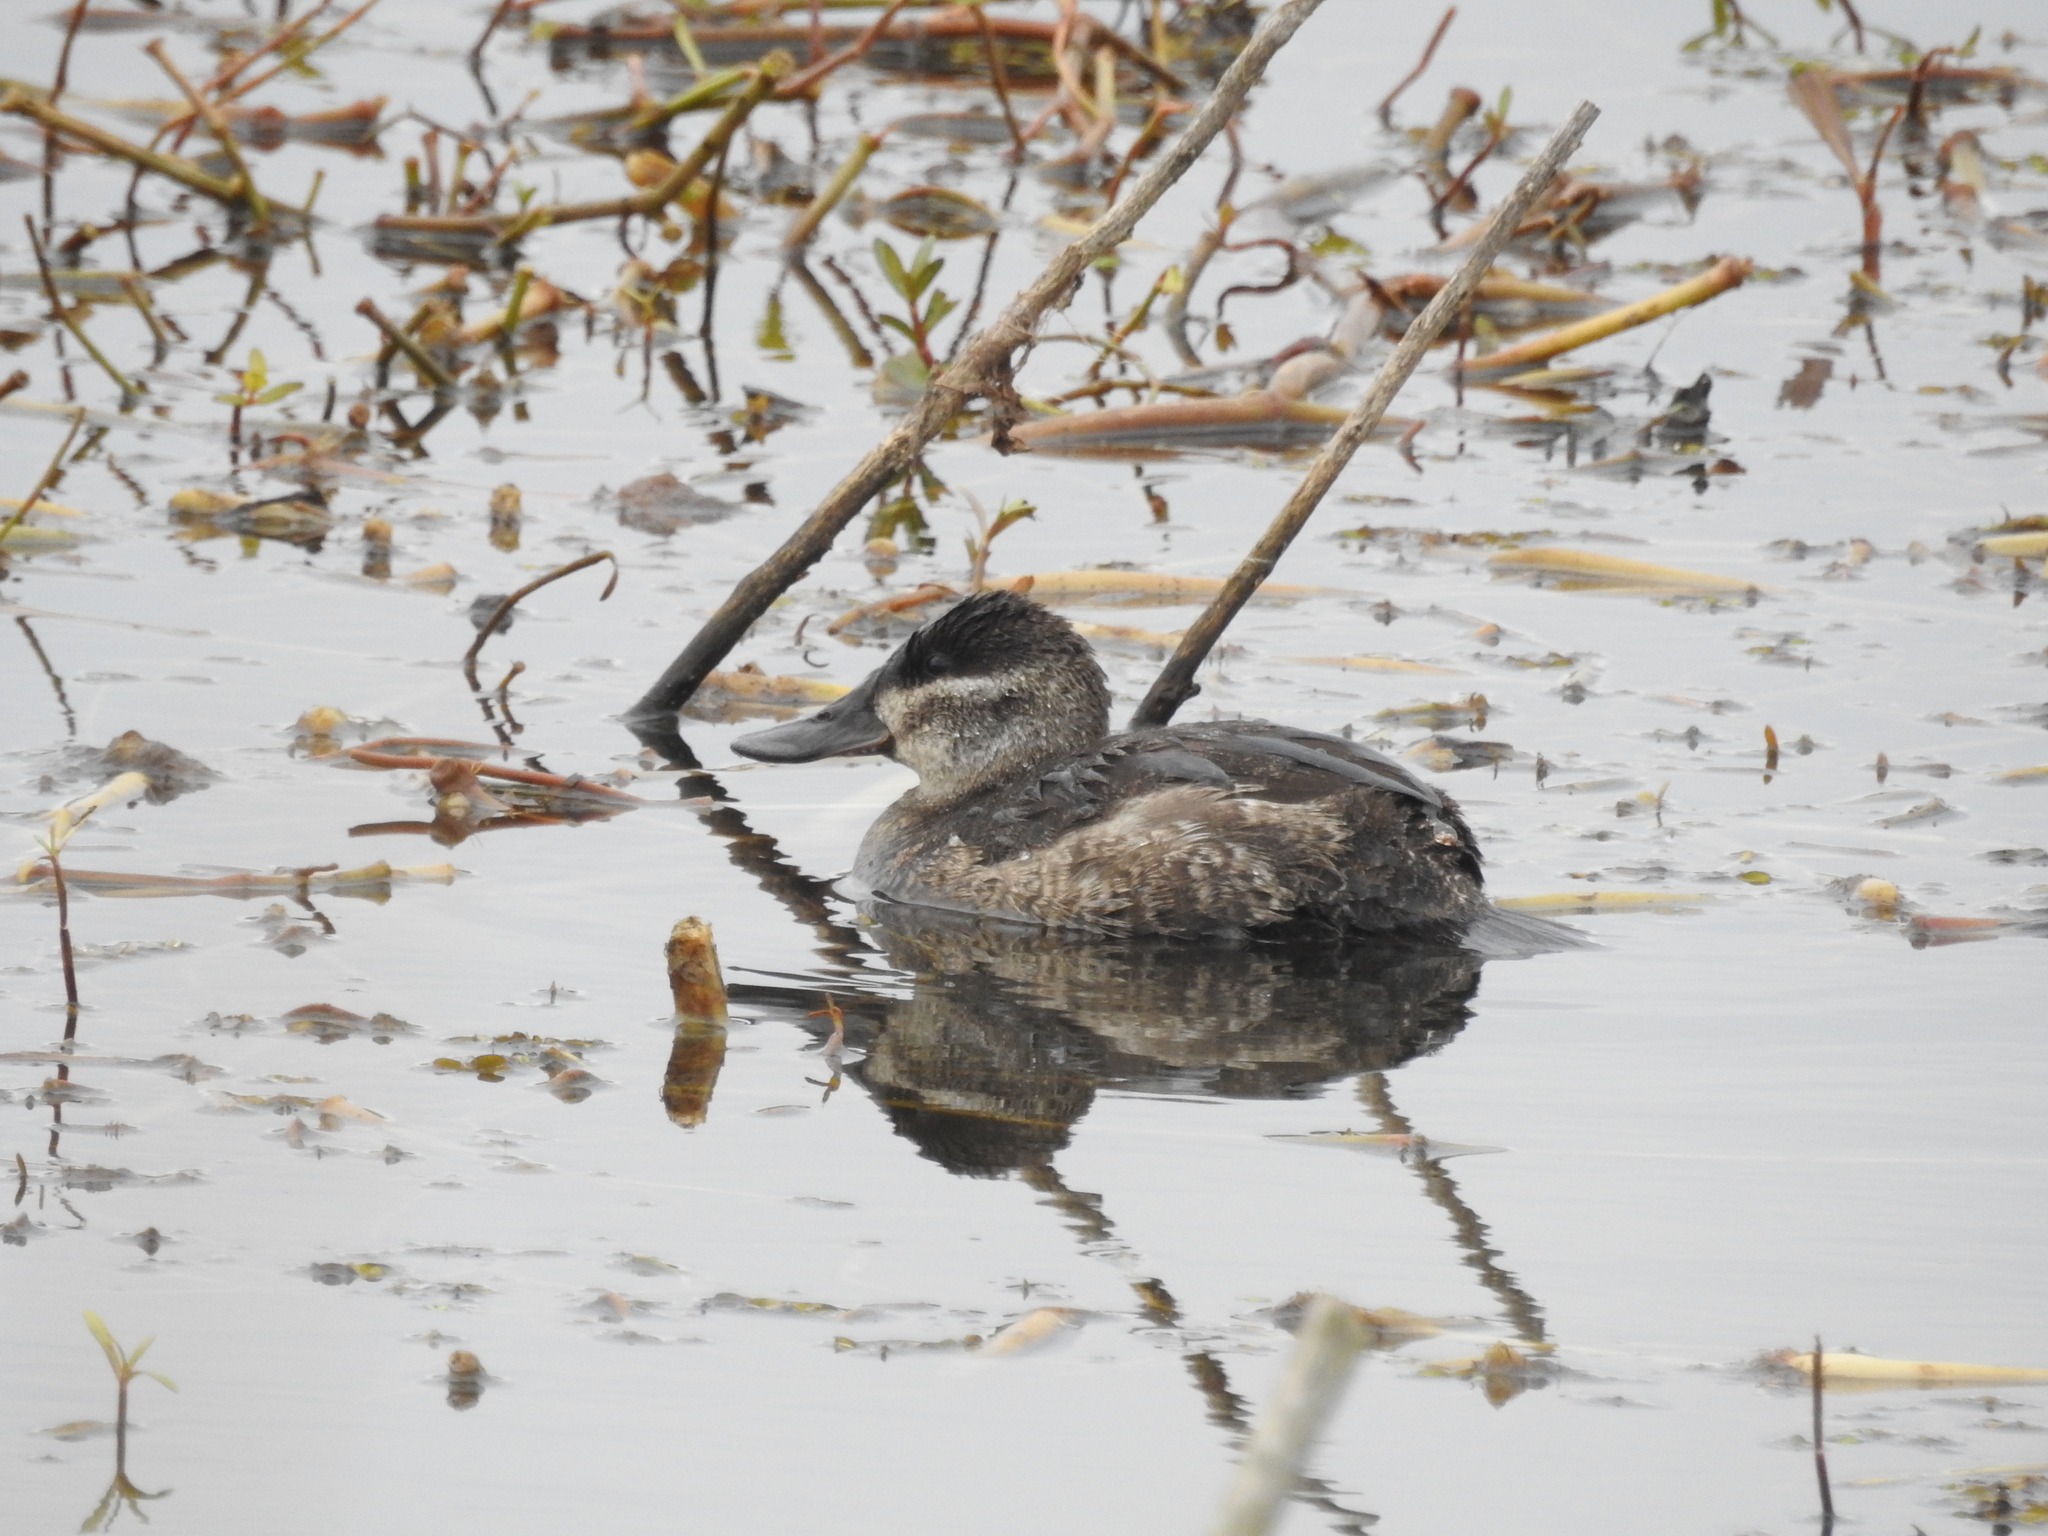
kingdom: Animalia
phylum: Chordata
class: Aves
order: Anseriformes
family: Anatidae
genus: Oxyura
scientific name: Oxyura jamaicensis
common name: Ruddy duck
